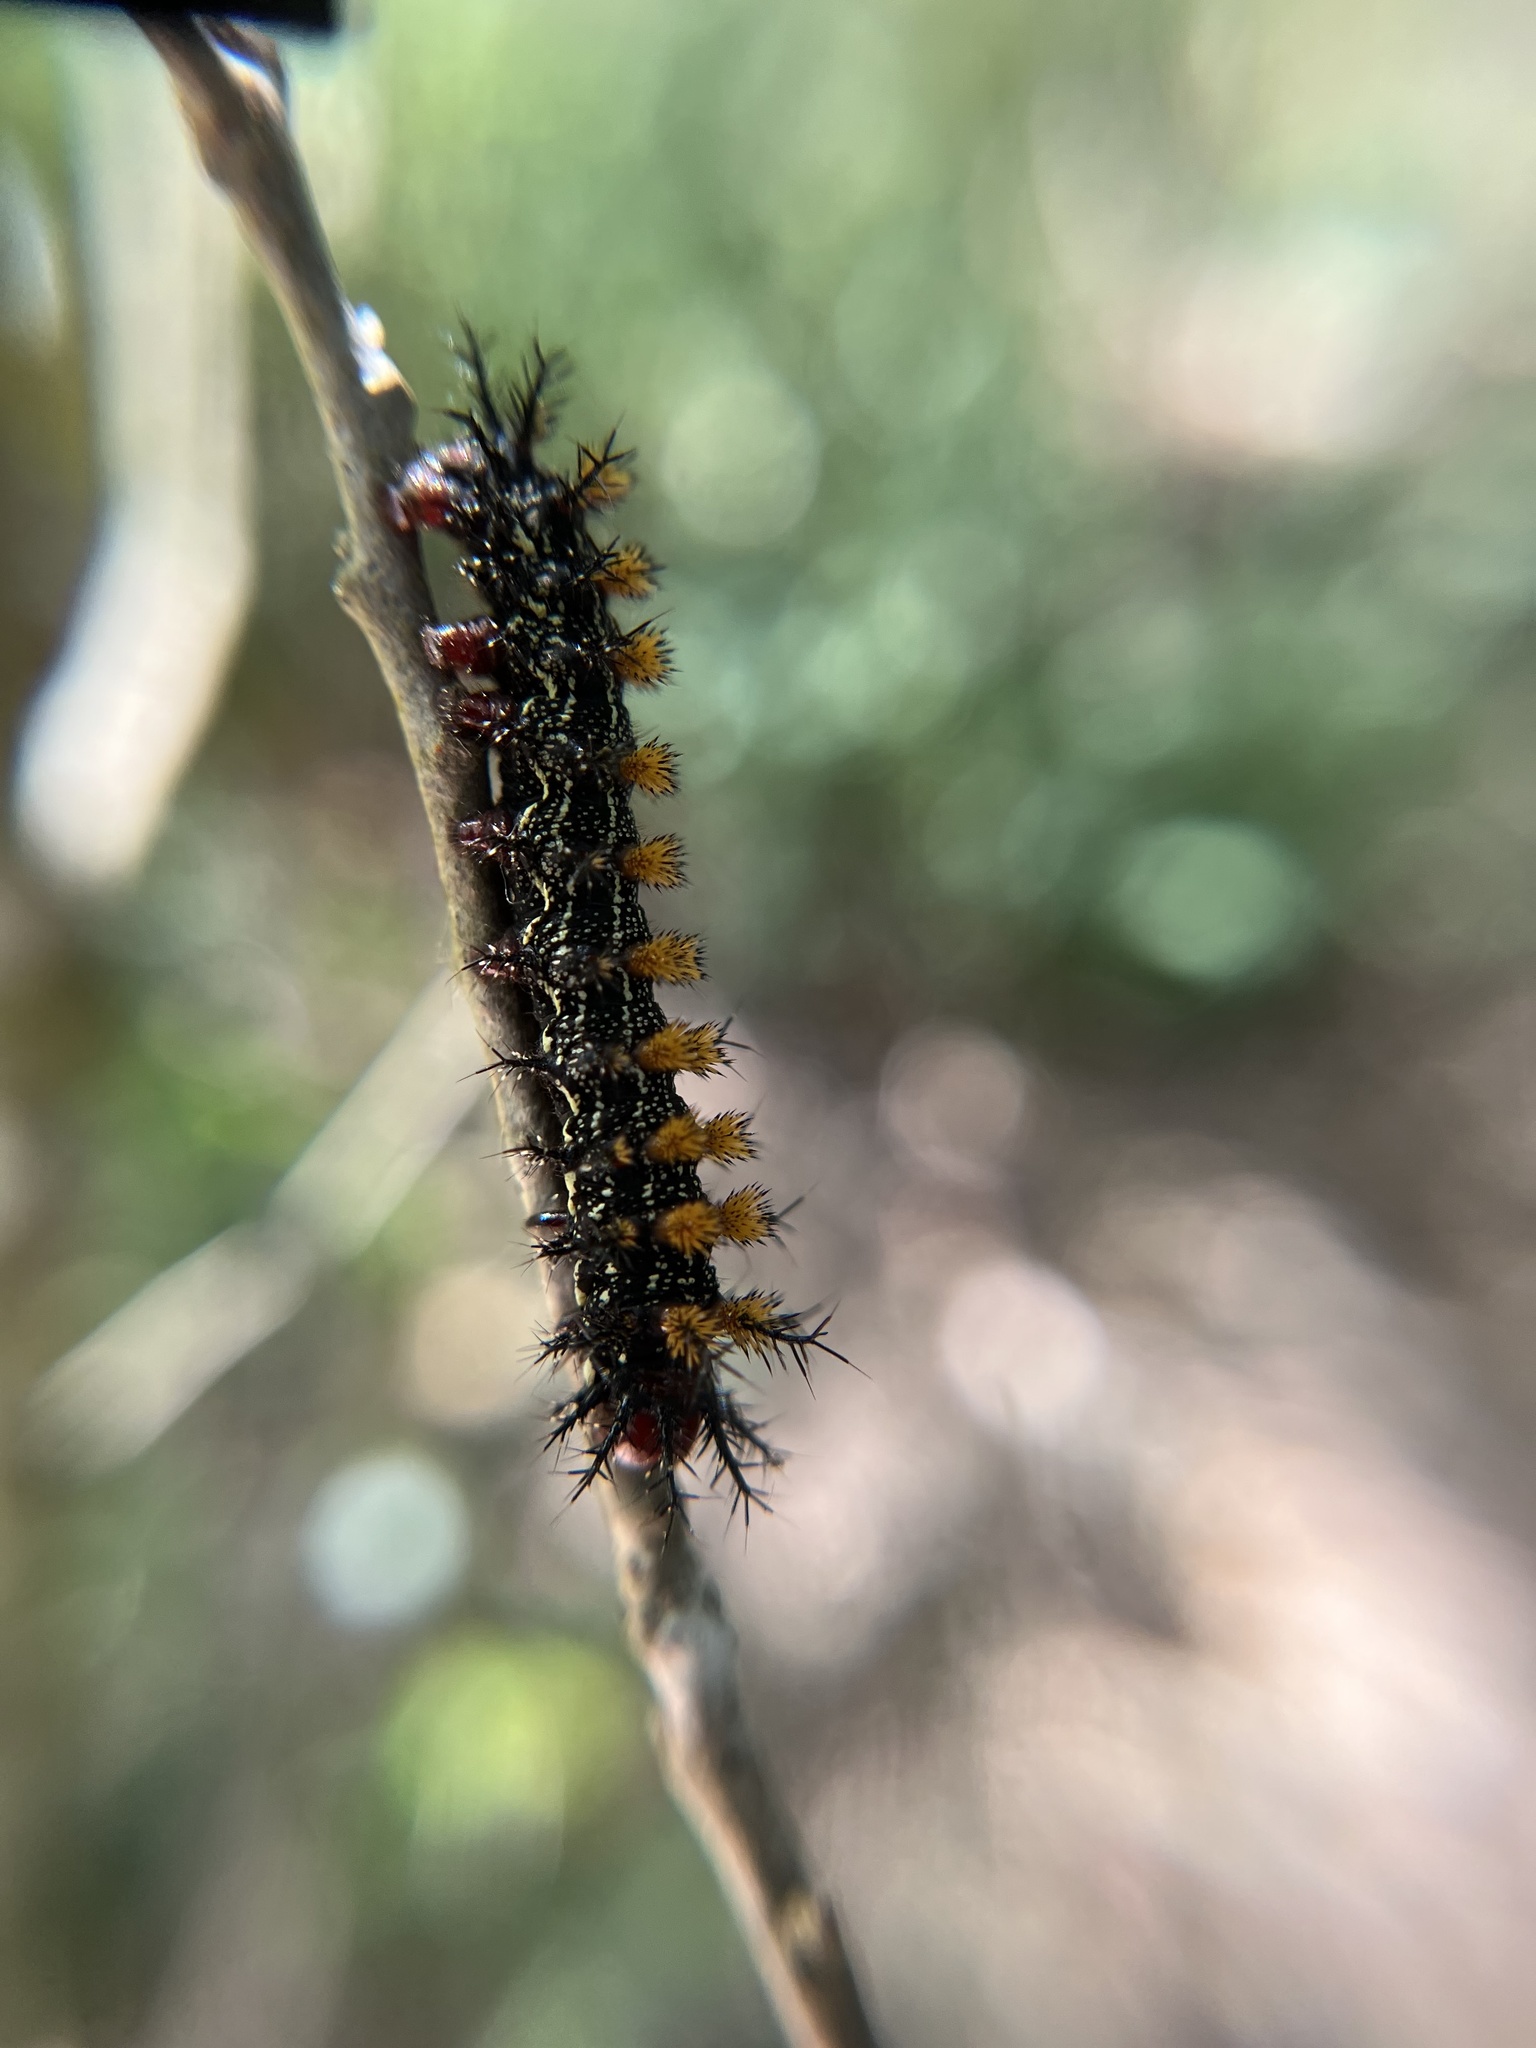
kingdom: Animalia
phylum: Arthropoda
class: Insecta
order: Lepidoptera
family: Saturniidae
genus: Hemileuca
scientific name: Hemileuca maia
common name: Eastern buckmoth
